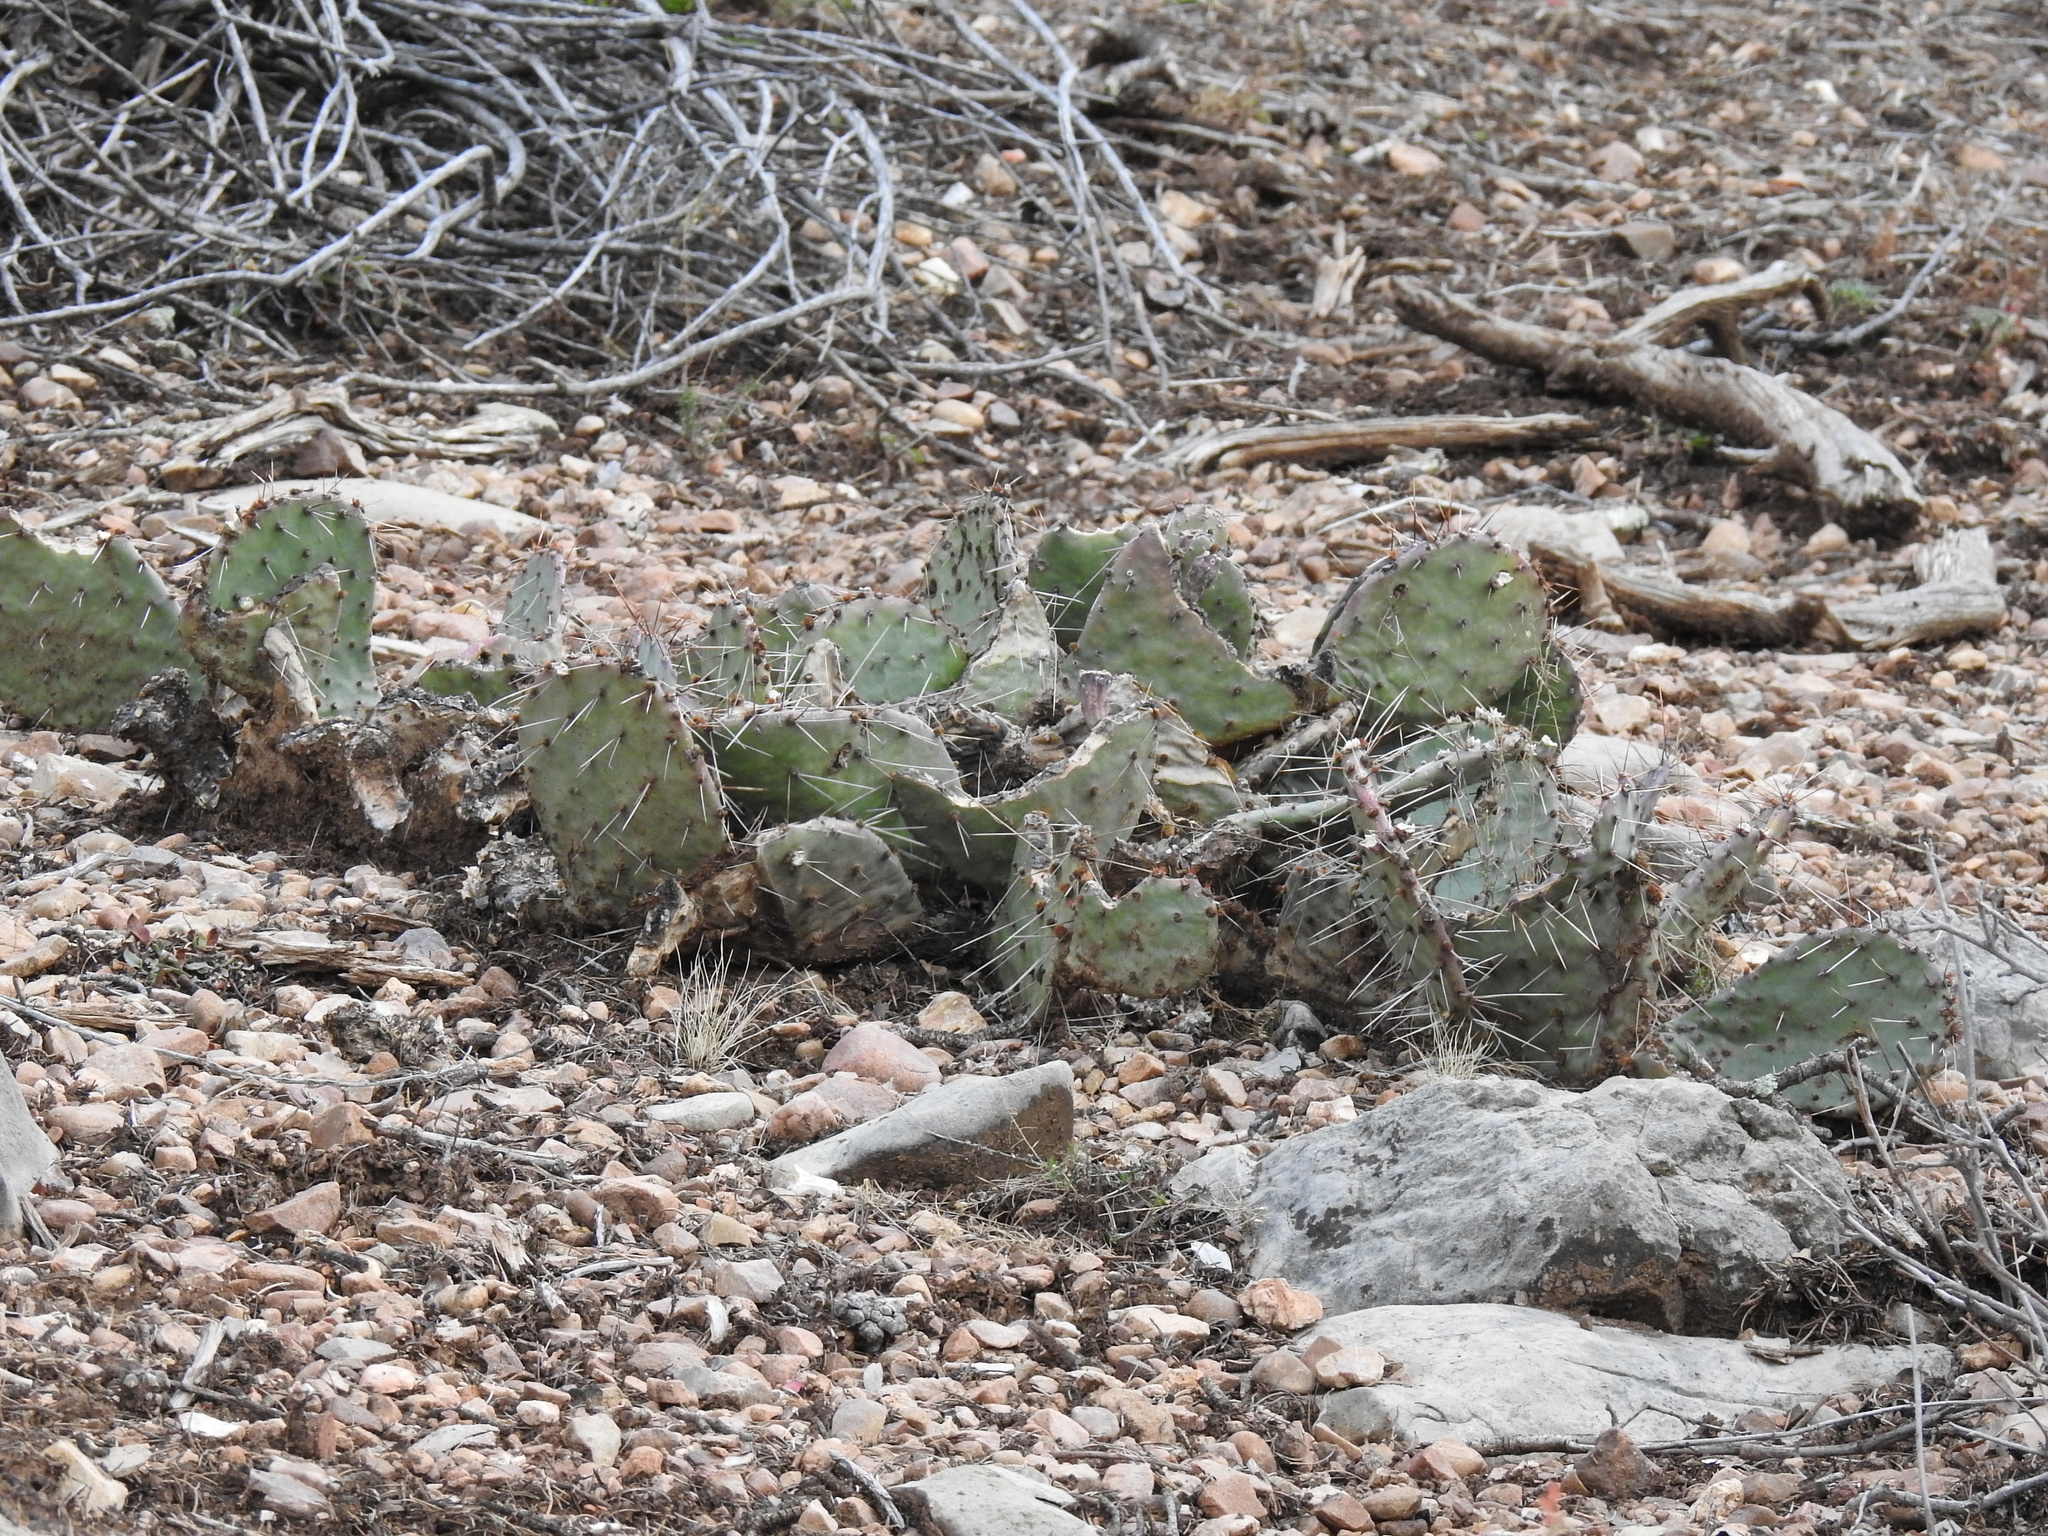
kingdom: Plantae
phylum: Tracheophyta
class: Magnoliopsida
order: Caryophyllales
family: Cactaceae
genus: Opuntia
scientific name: Opuntia phaeacantha
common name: New mexico prickly-pear
